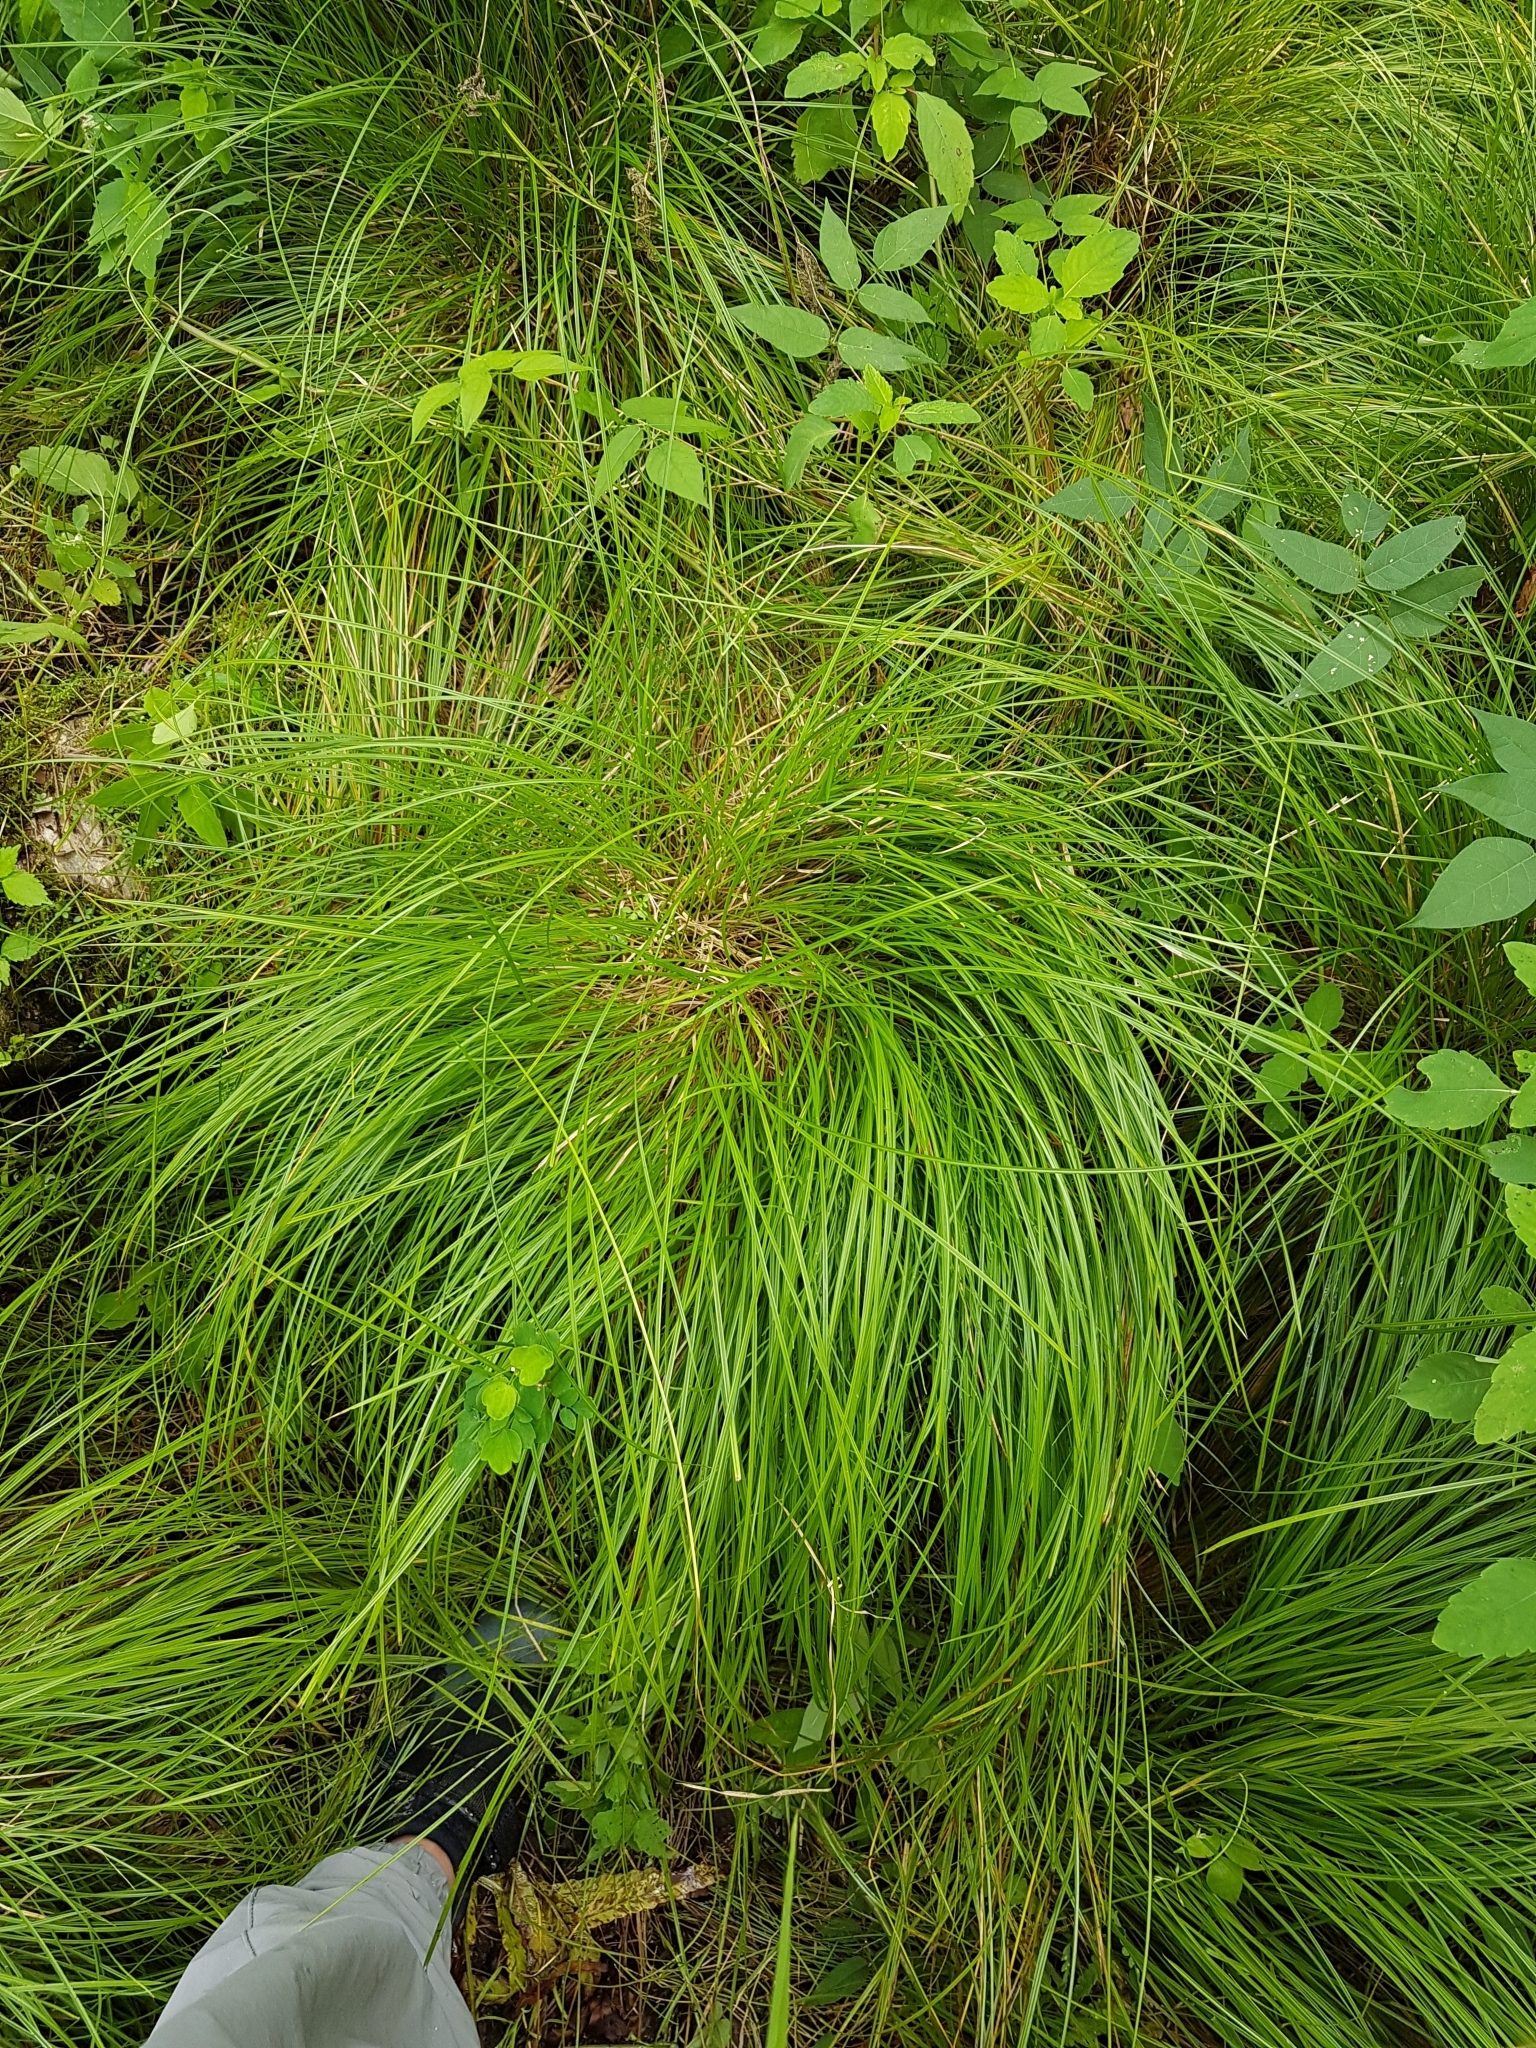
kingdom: Plantae
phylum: Tracheophyta
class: Liliopsida
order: Poales
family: Cyperaceae
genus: Carex
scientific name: Carex bromoides
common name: Brome hummock sedge
